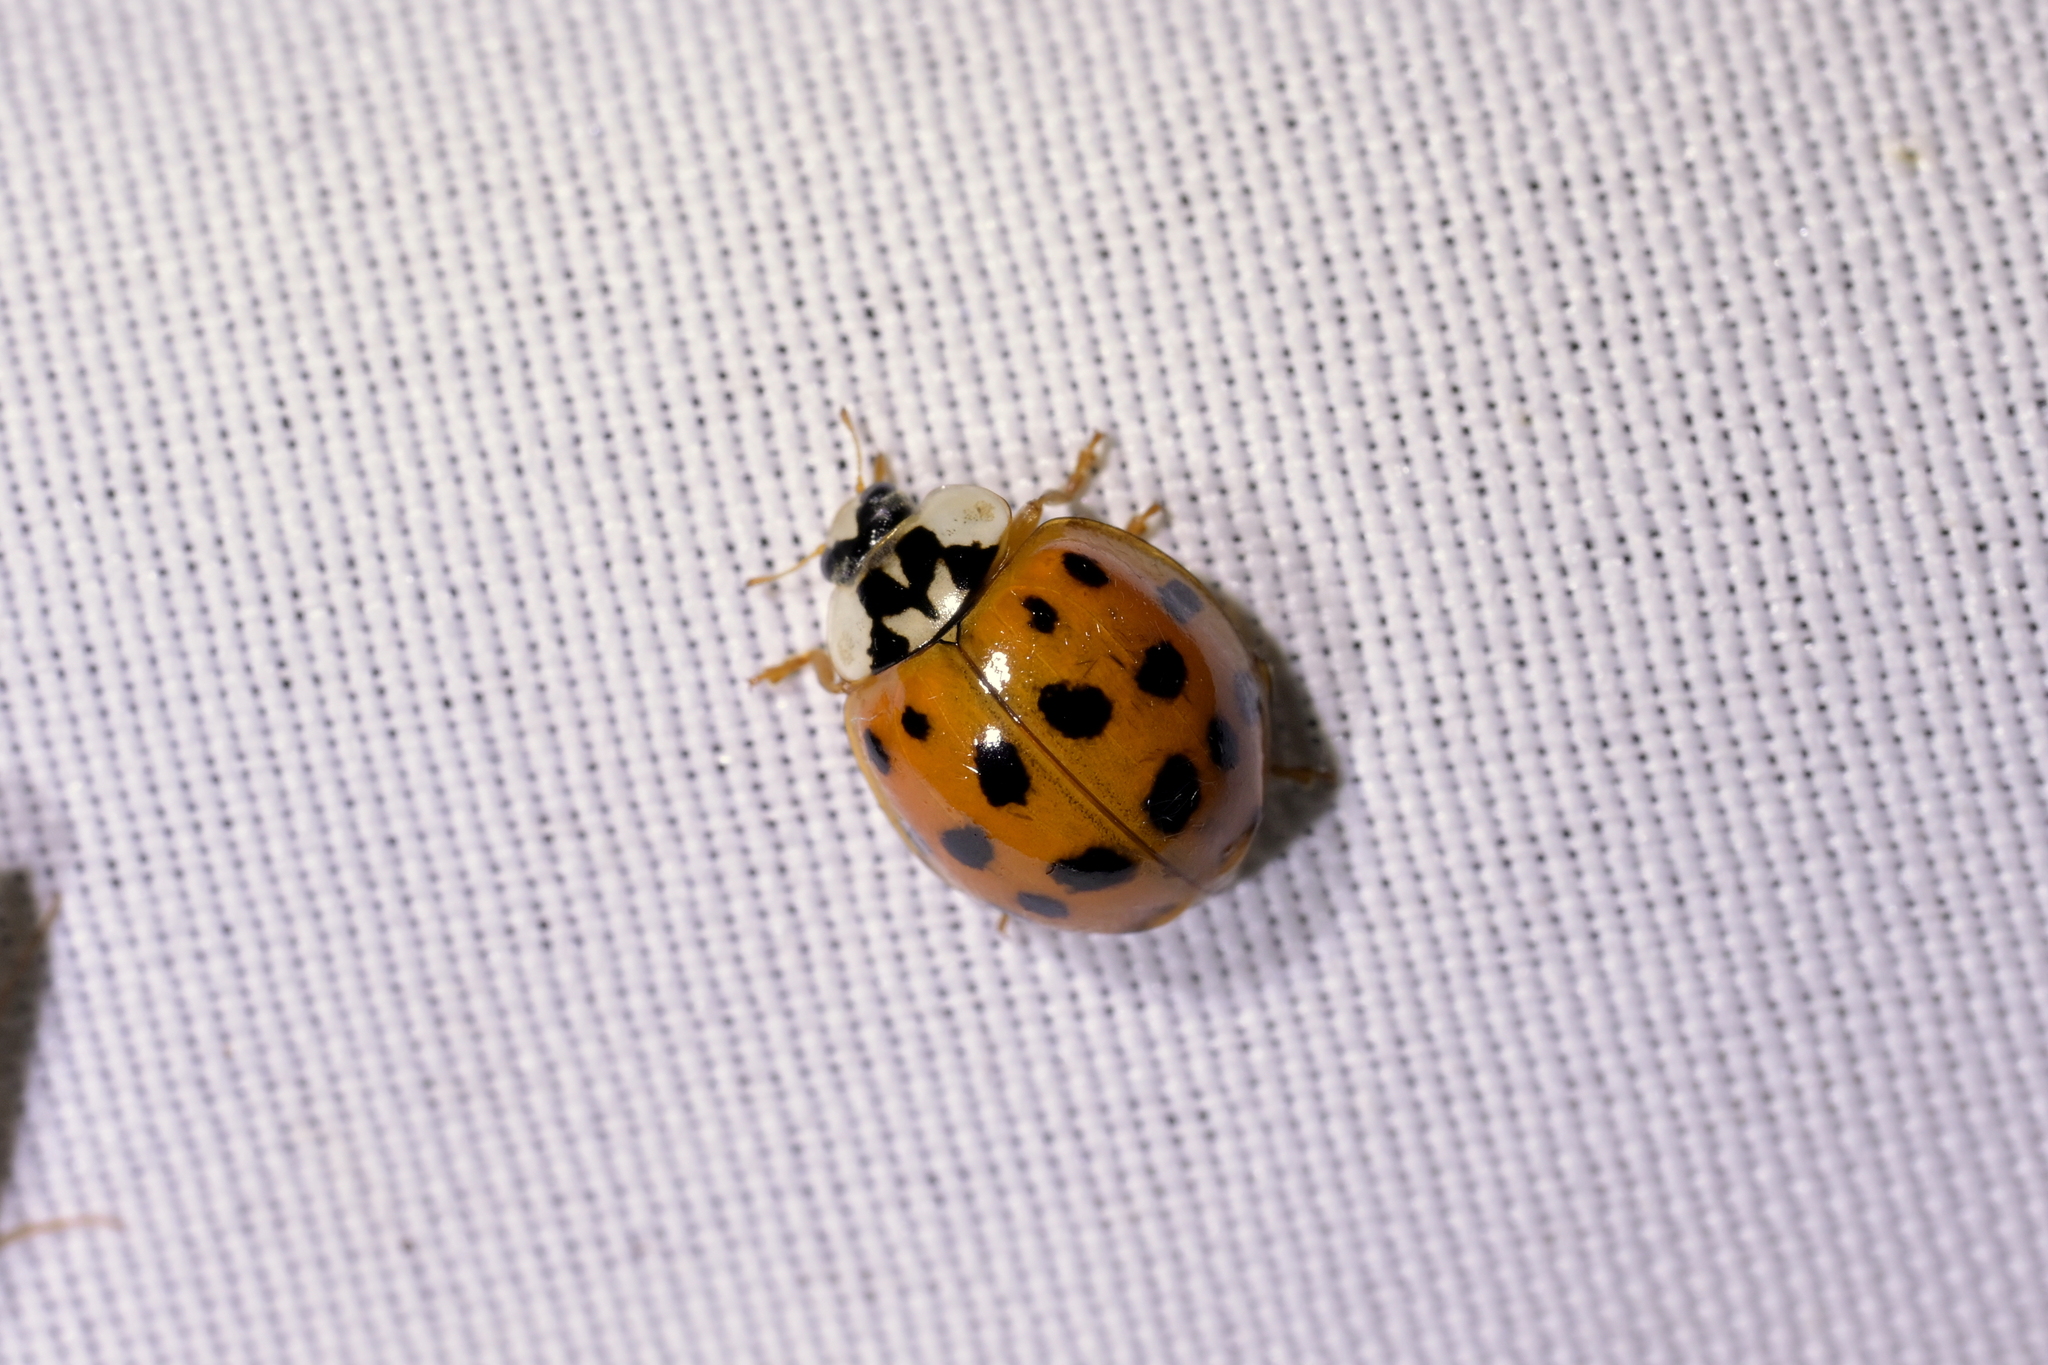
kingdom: Animalia
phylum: Arthropoda
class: Insecta
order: Coleoptera
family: Coccinellidae
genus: Harmonia
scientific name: Harmonia axyridis
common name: Harlequin ladybird
